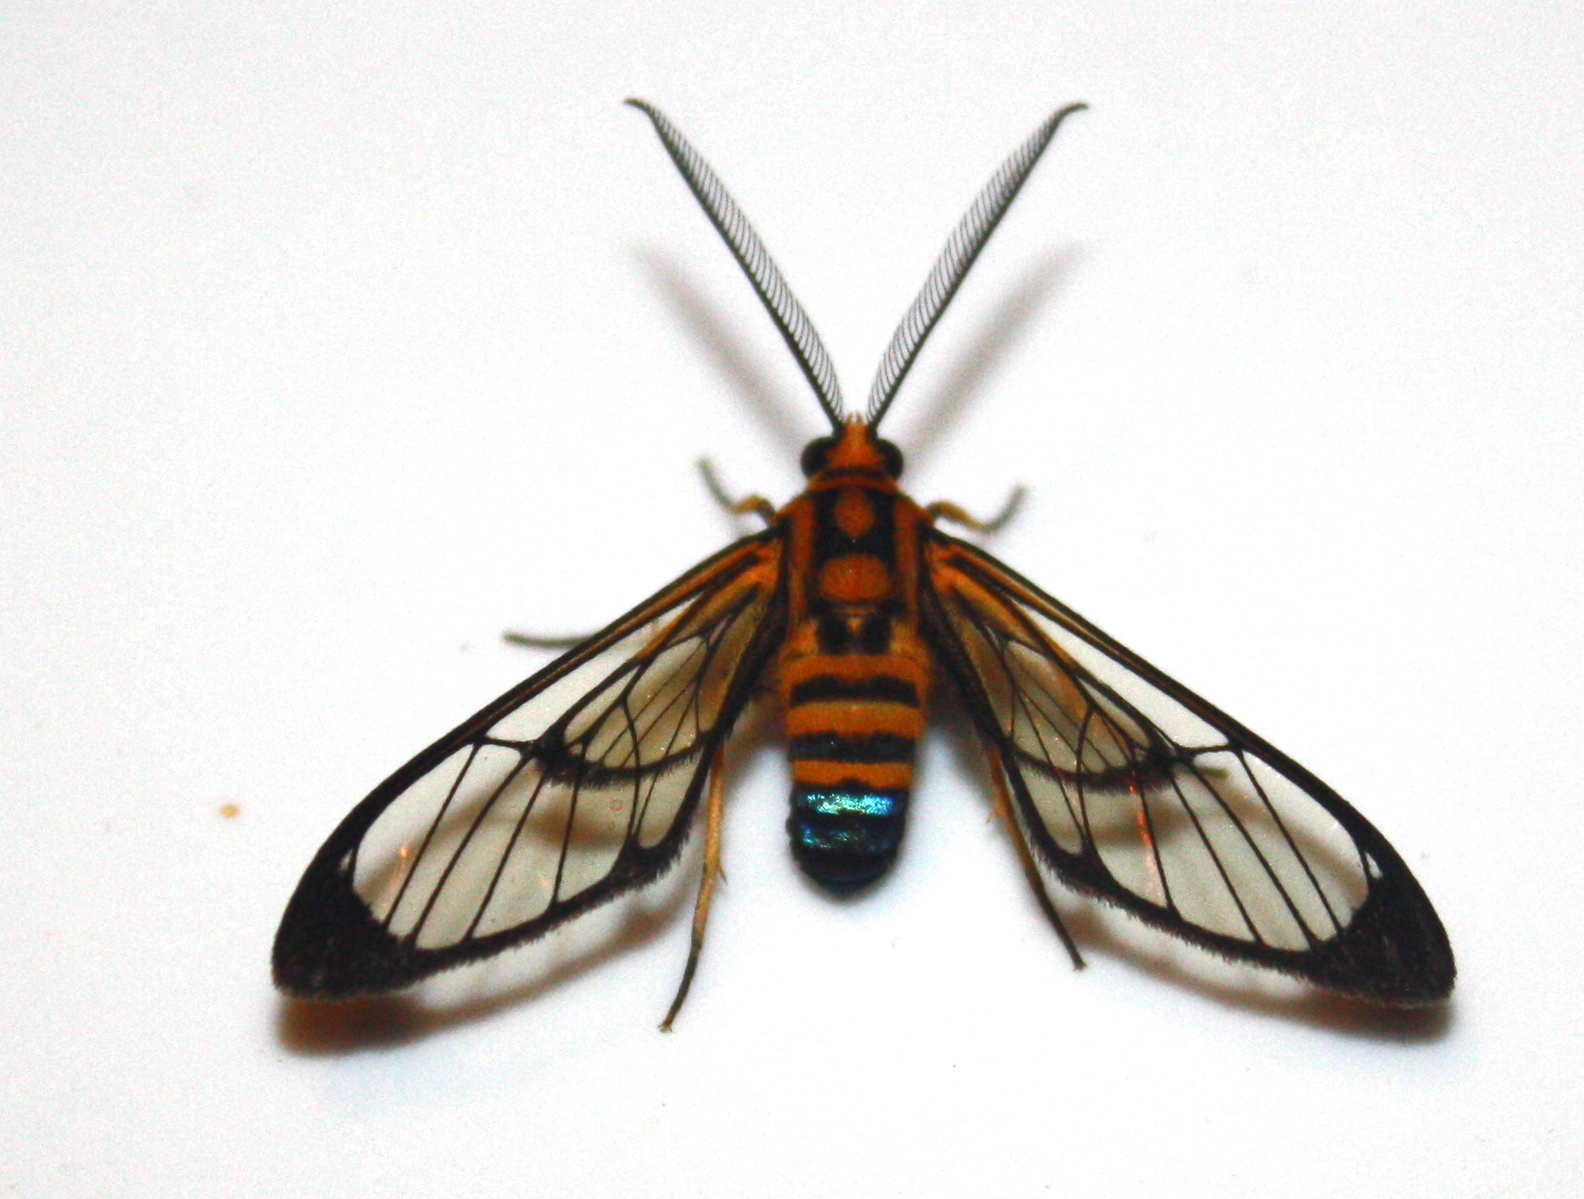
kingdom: Animalia
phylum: Arthropoda
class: Insecta
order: Lepidoptera
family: Erebidae
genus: Mesothen
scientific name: Mesothen nomia
